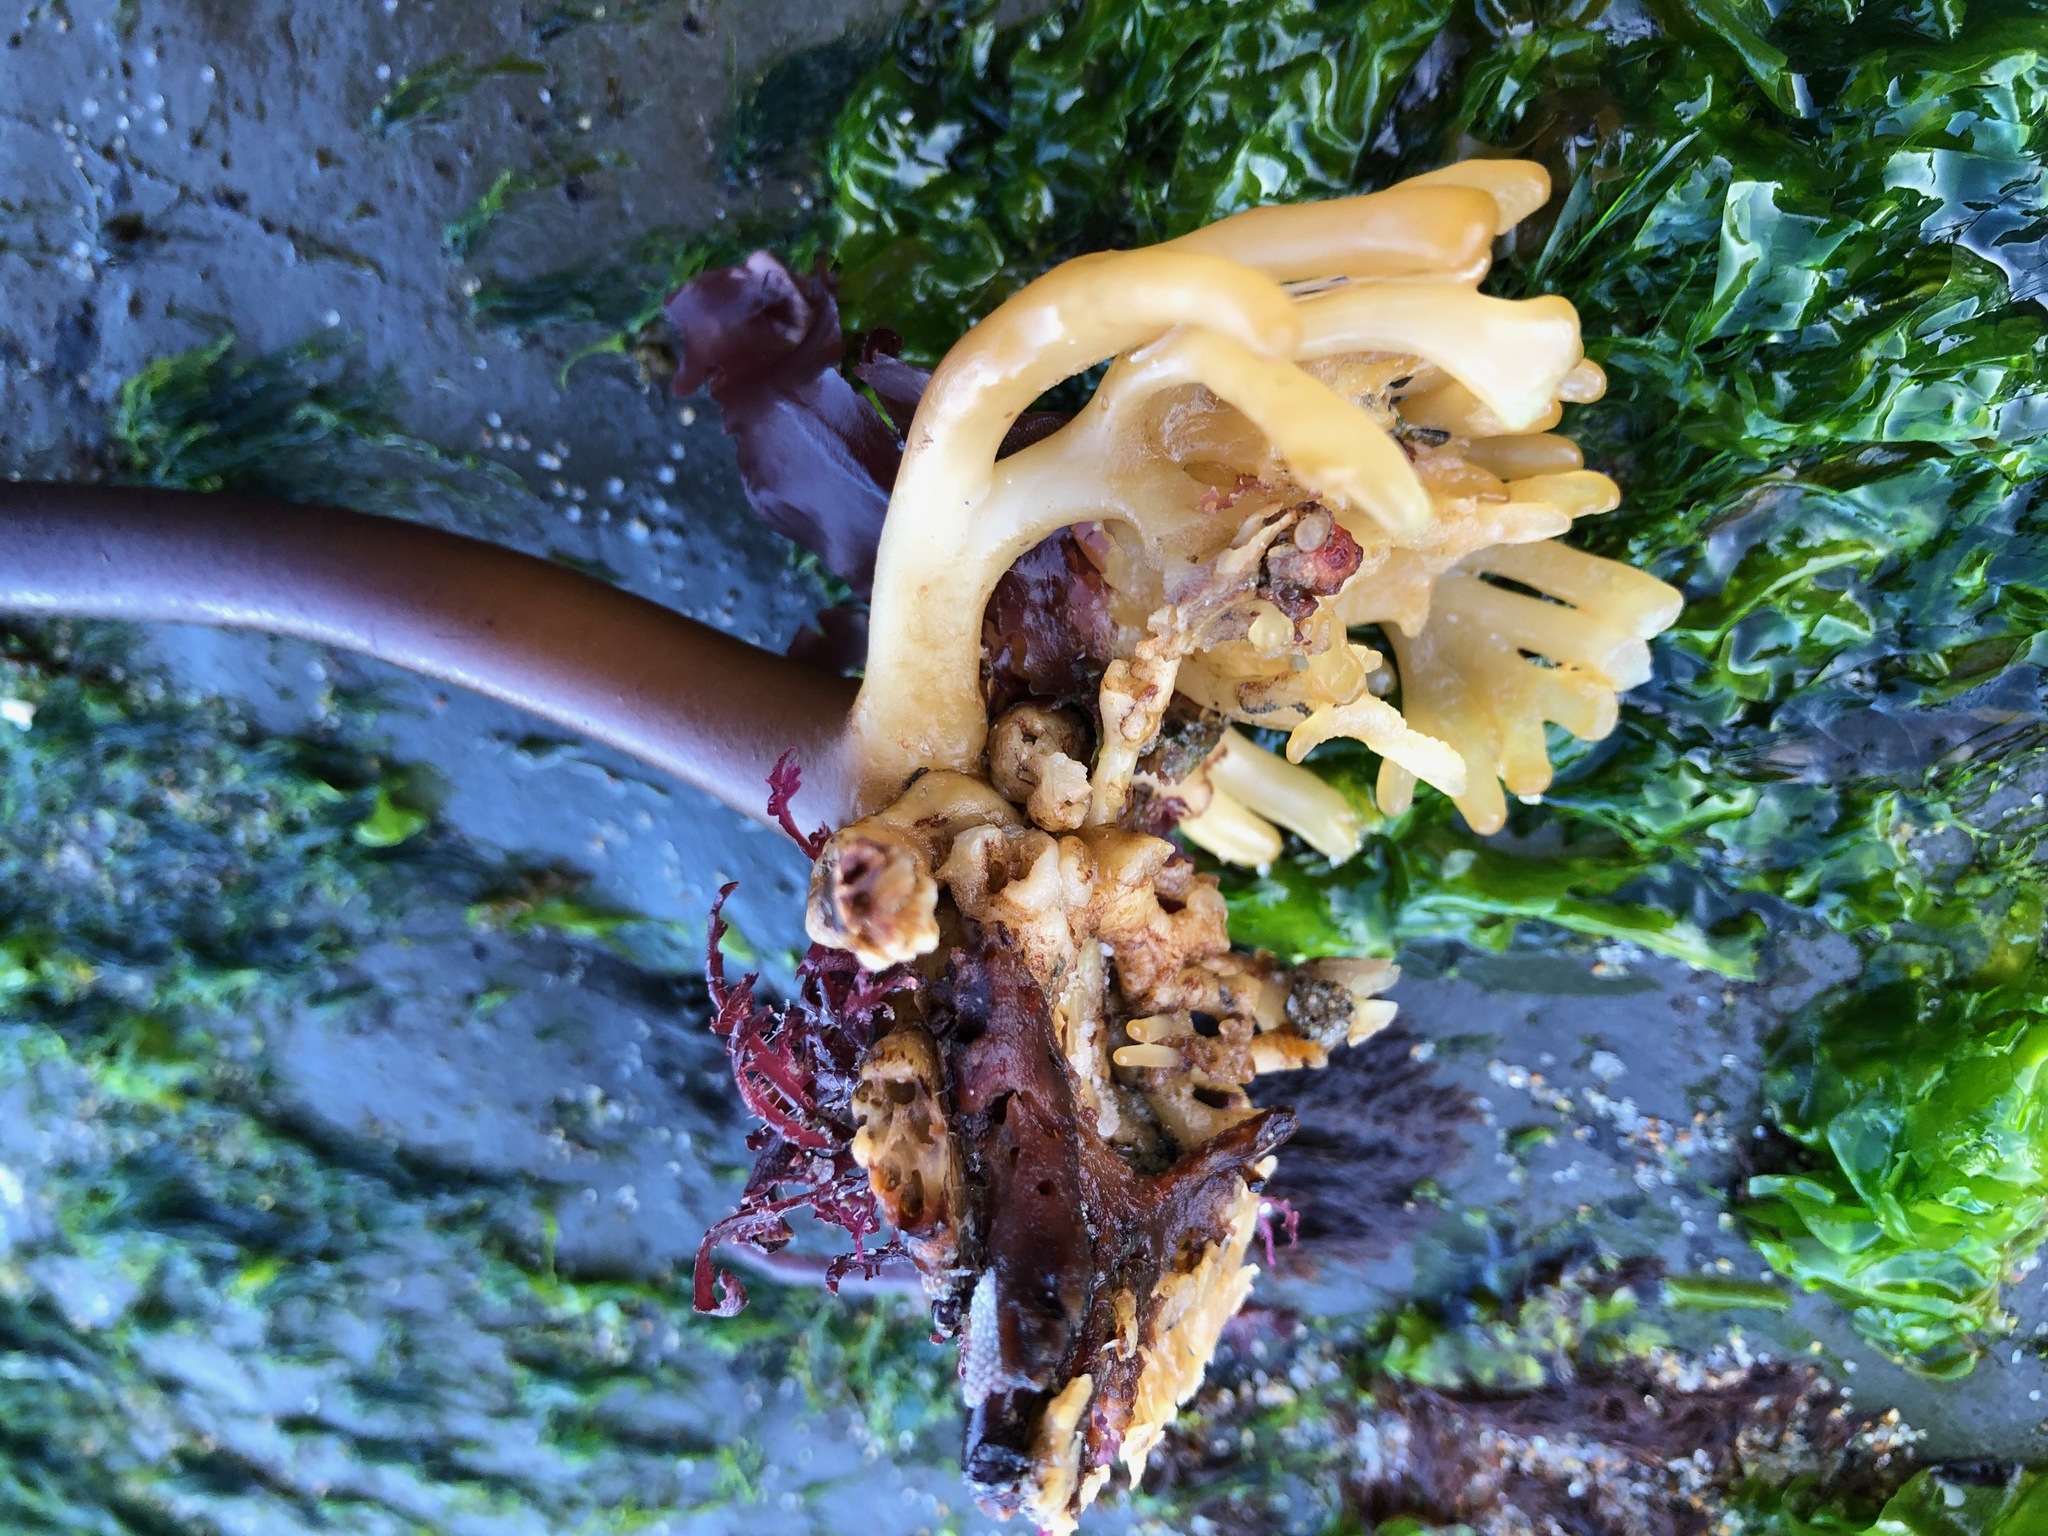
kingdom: Chromista
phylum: Ochrophyta
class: Phaeophyceae
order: Laminariales
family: Laminariaceae
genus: Laminaria
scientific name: Laminaria setchellii
